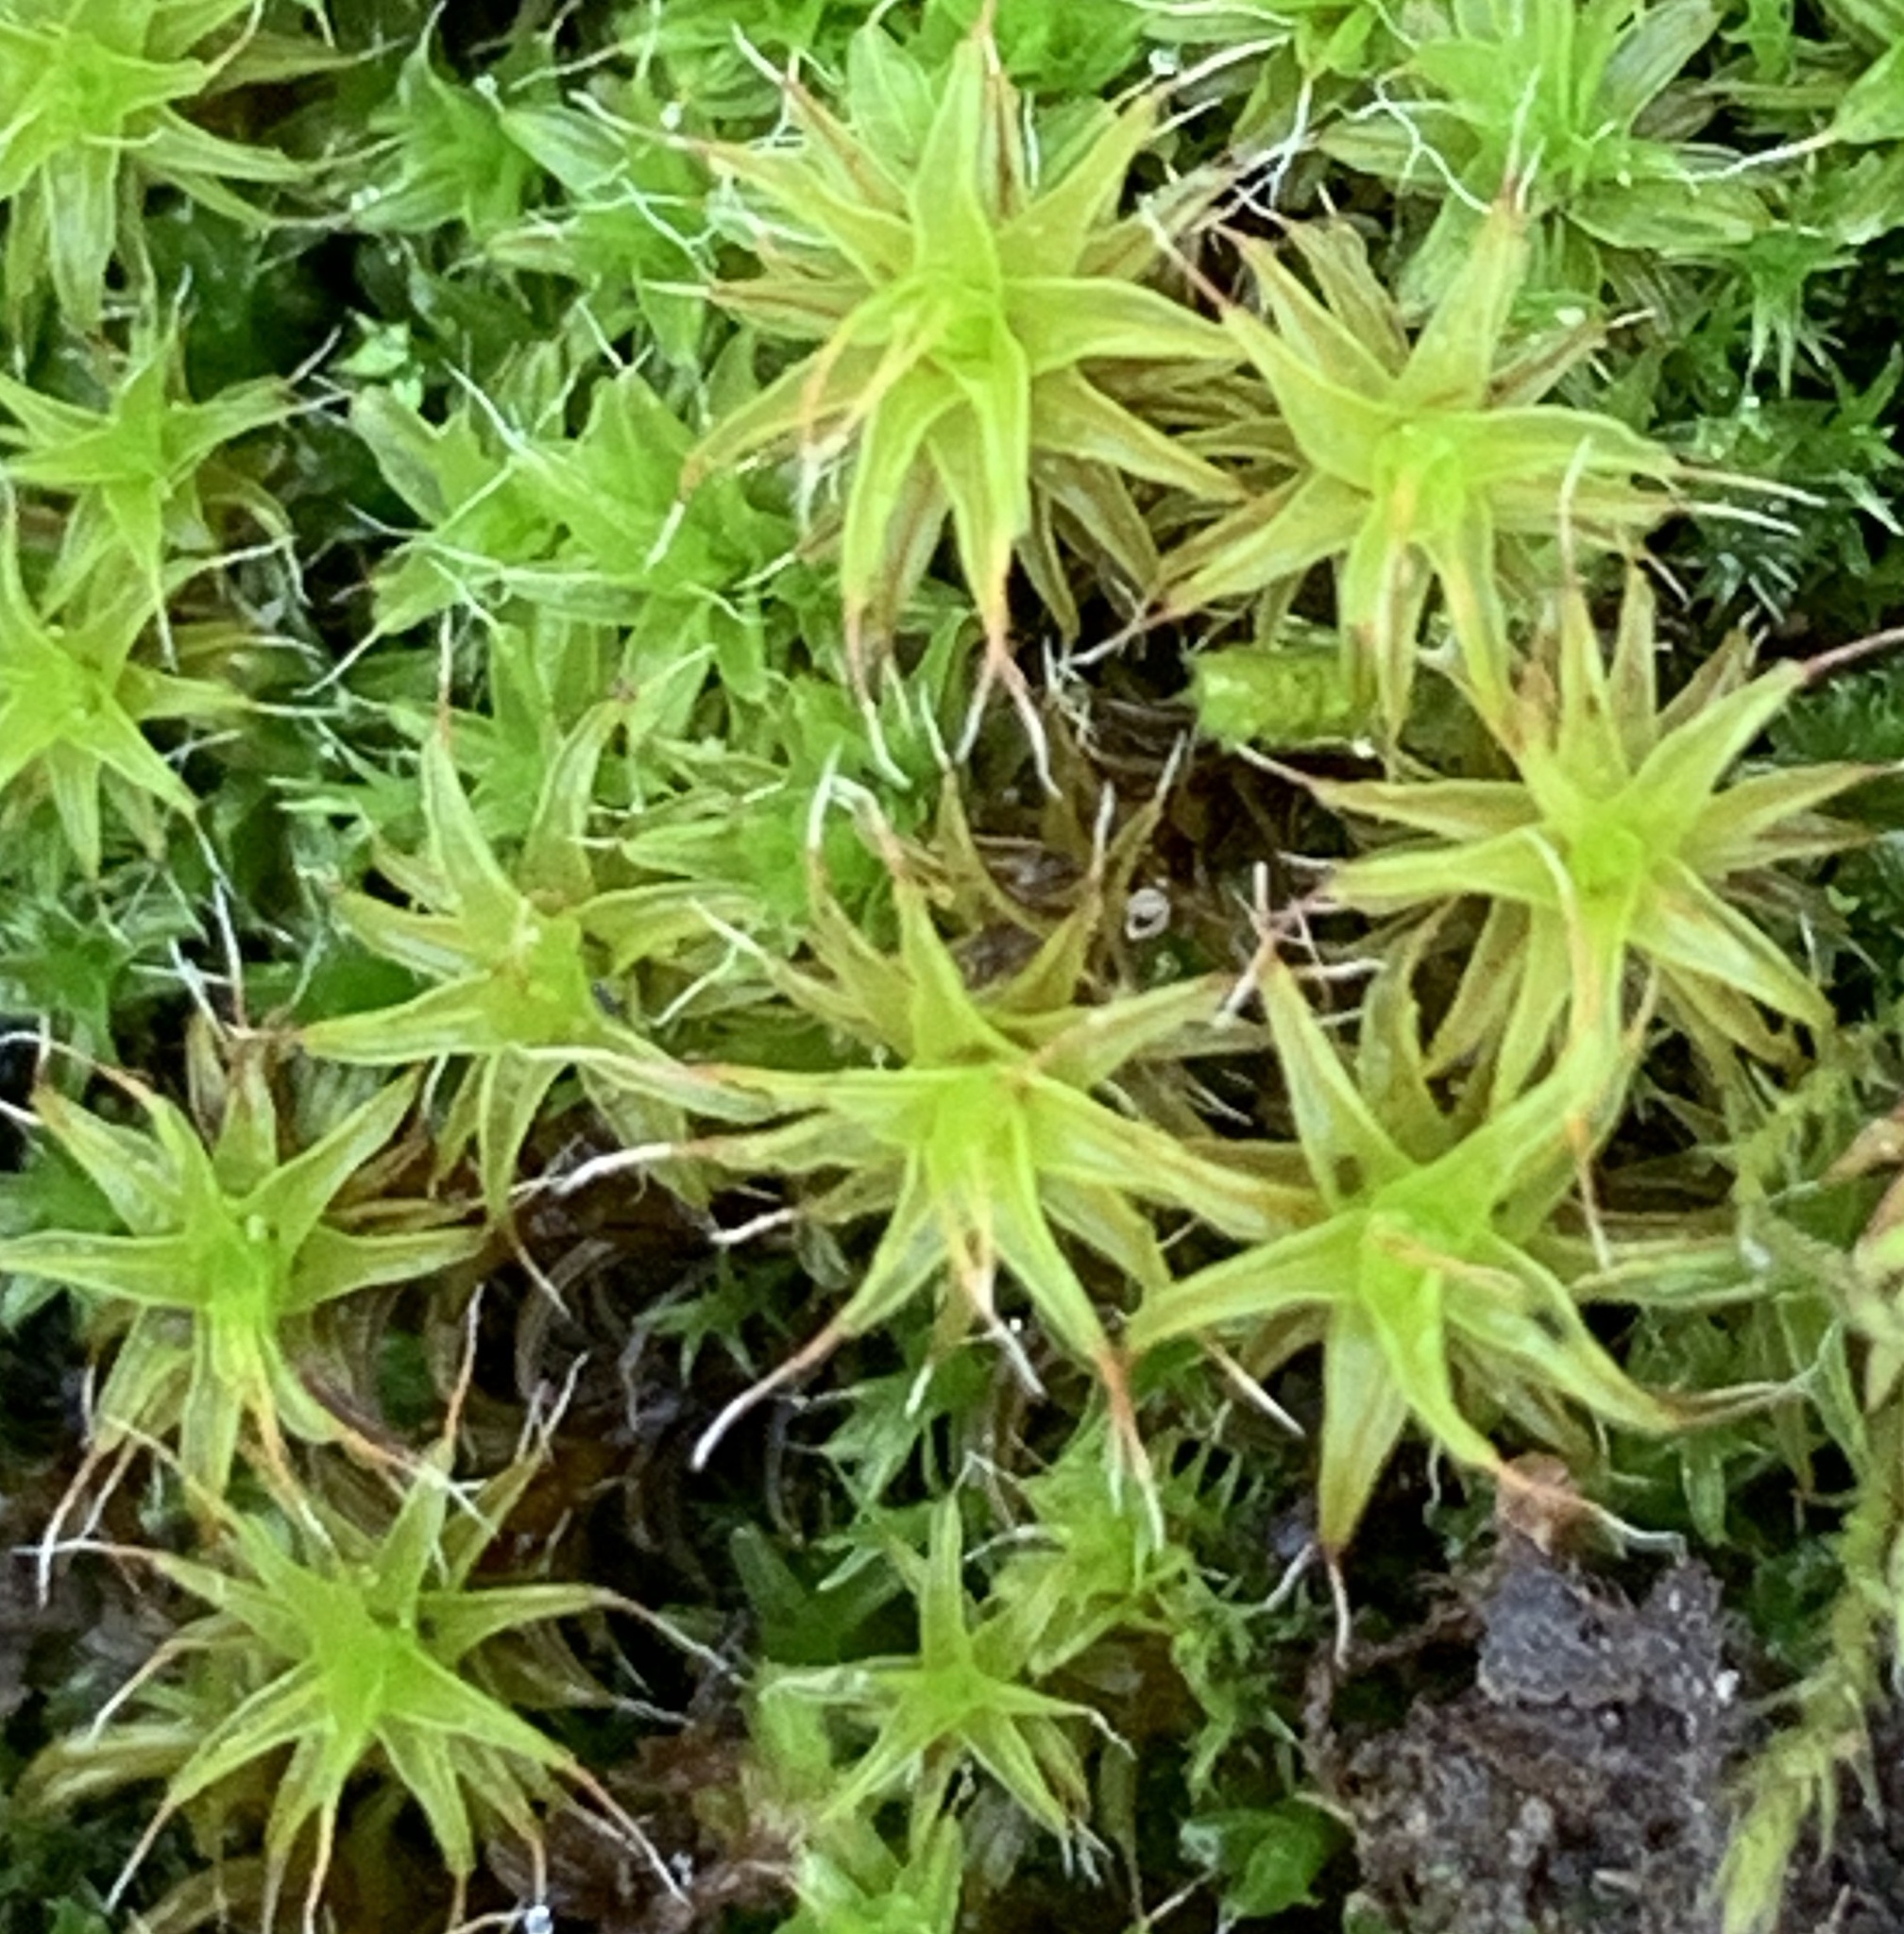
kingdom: Plantae
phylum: Bryophyta
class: Bryopsida
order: Pottiales
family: Pottiaceae
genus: Syntrichia
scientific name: Syntrichia ruralis
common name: Sidewalk screw moss
